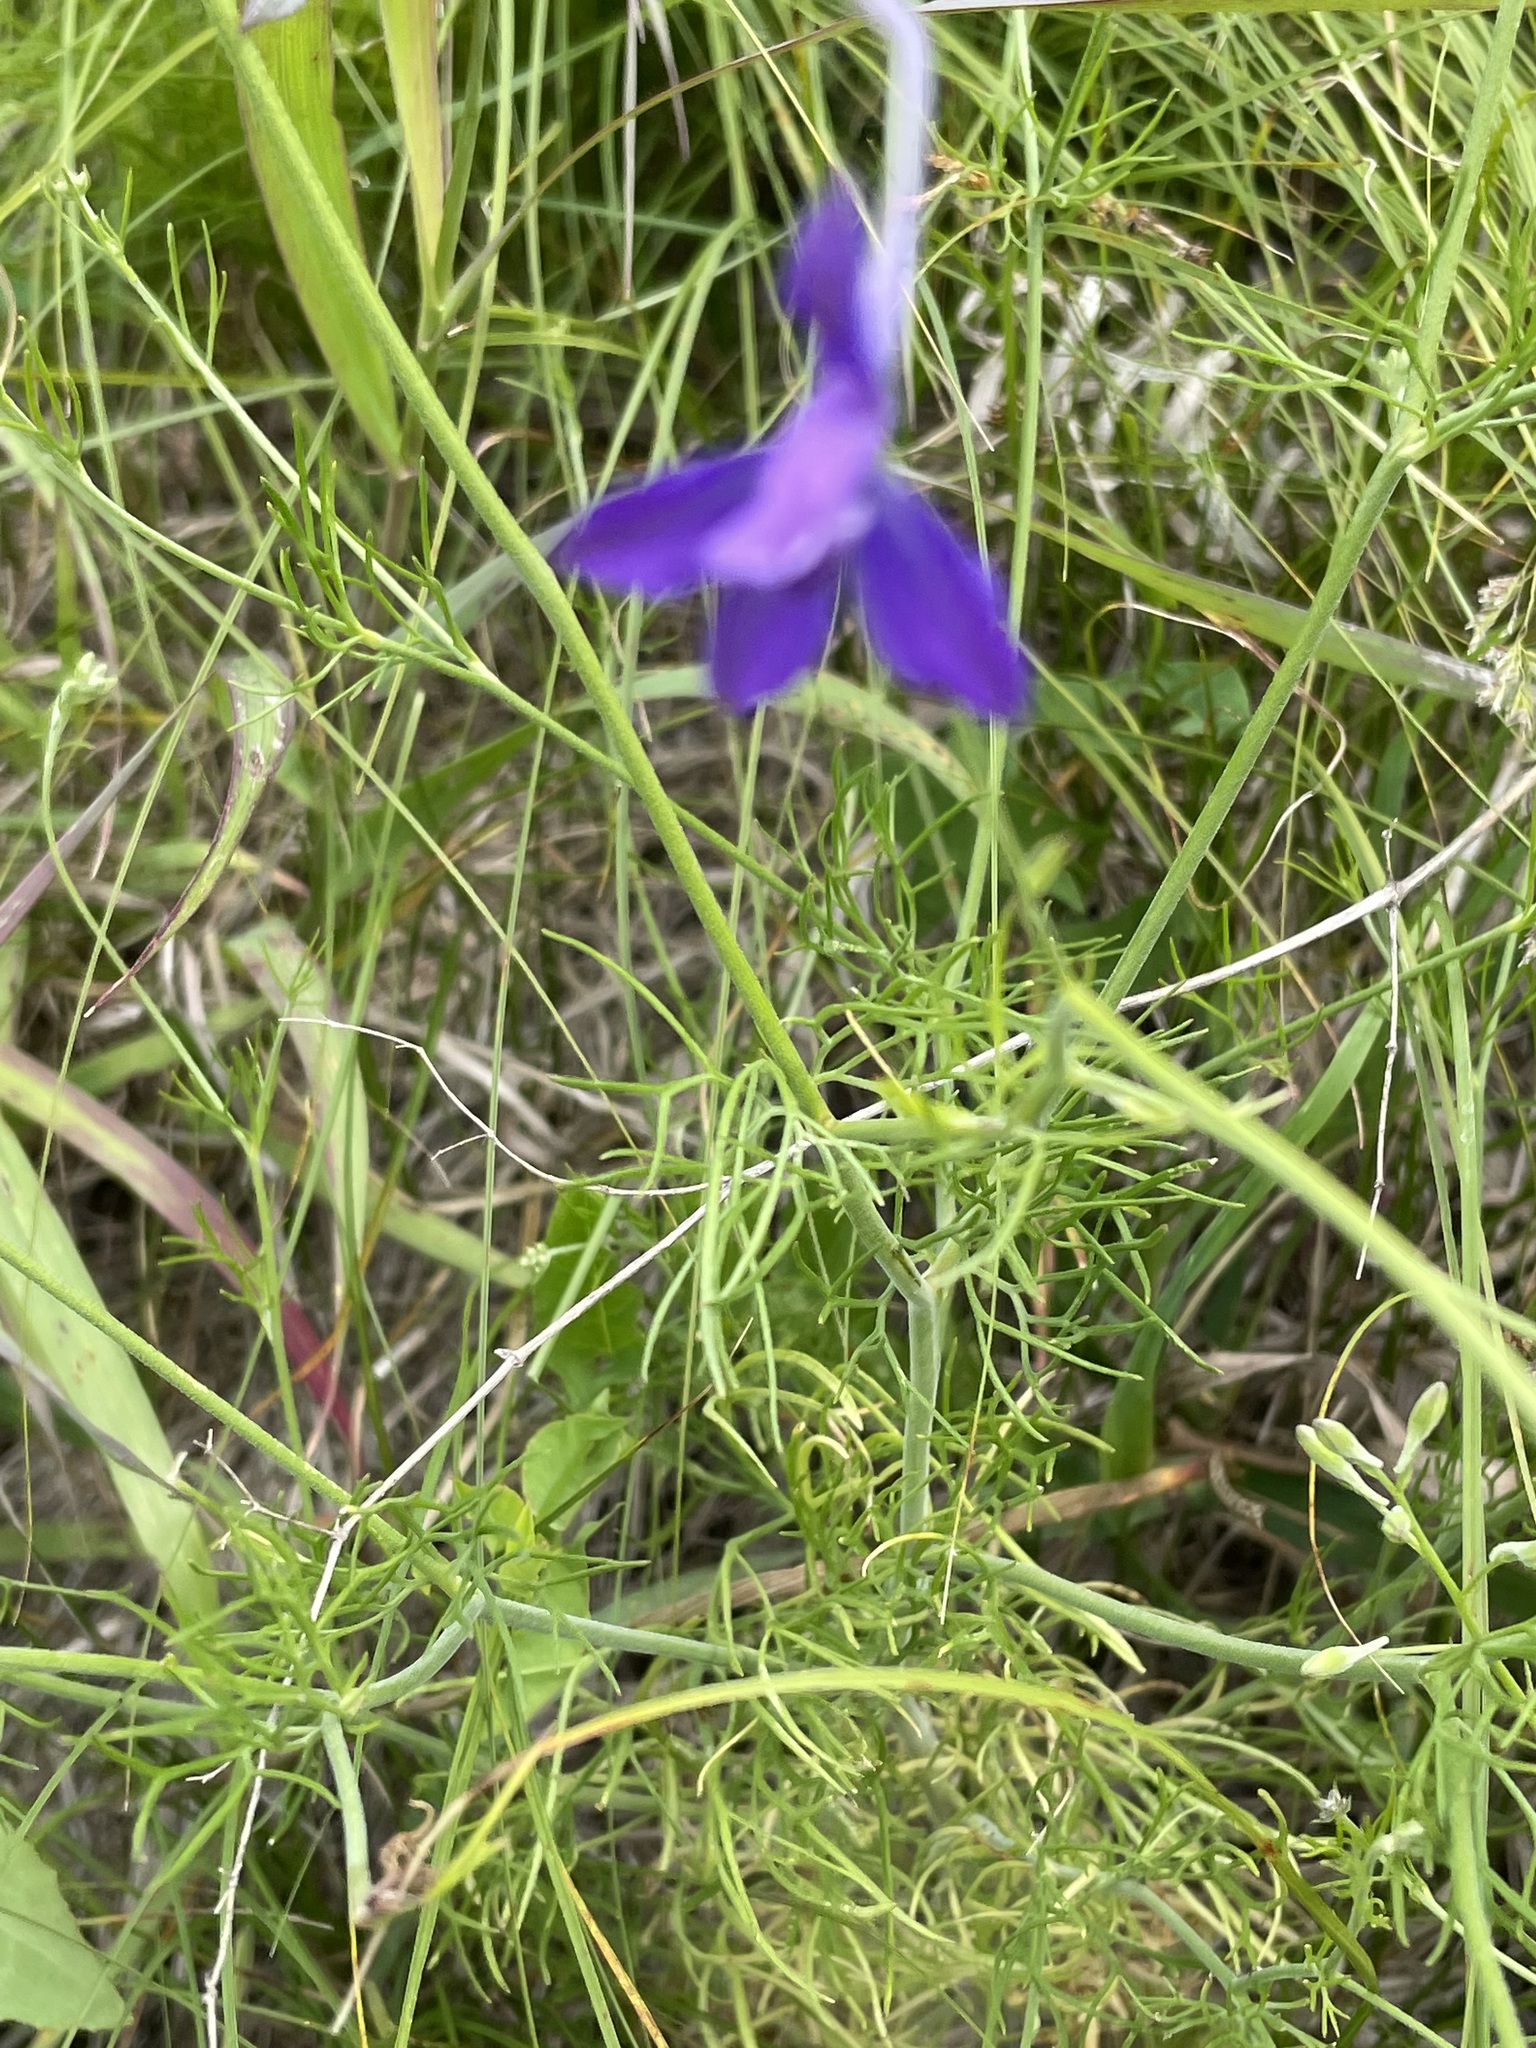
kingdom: Plantae
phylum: Tracheophyta
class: Magnoliopsida
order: Ranunculales
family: Ranunculaceae
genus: Delphinium
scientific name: Delphinium consolida
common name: Branching larkspur
